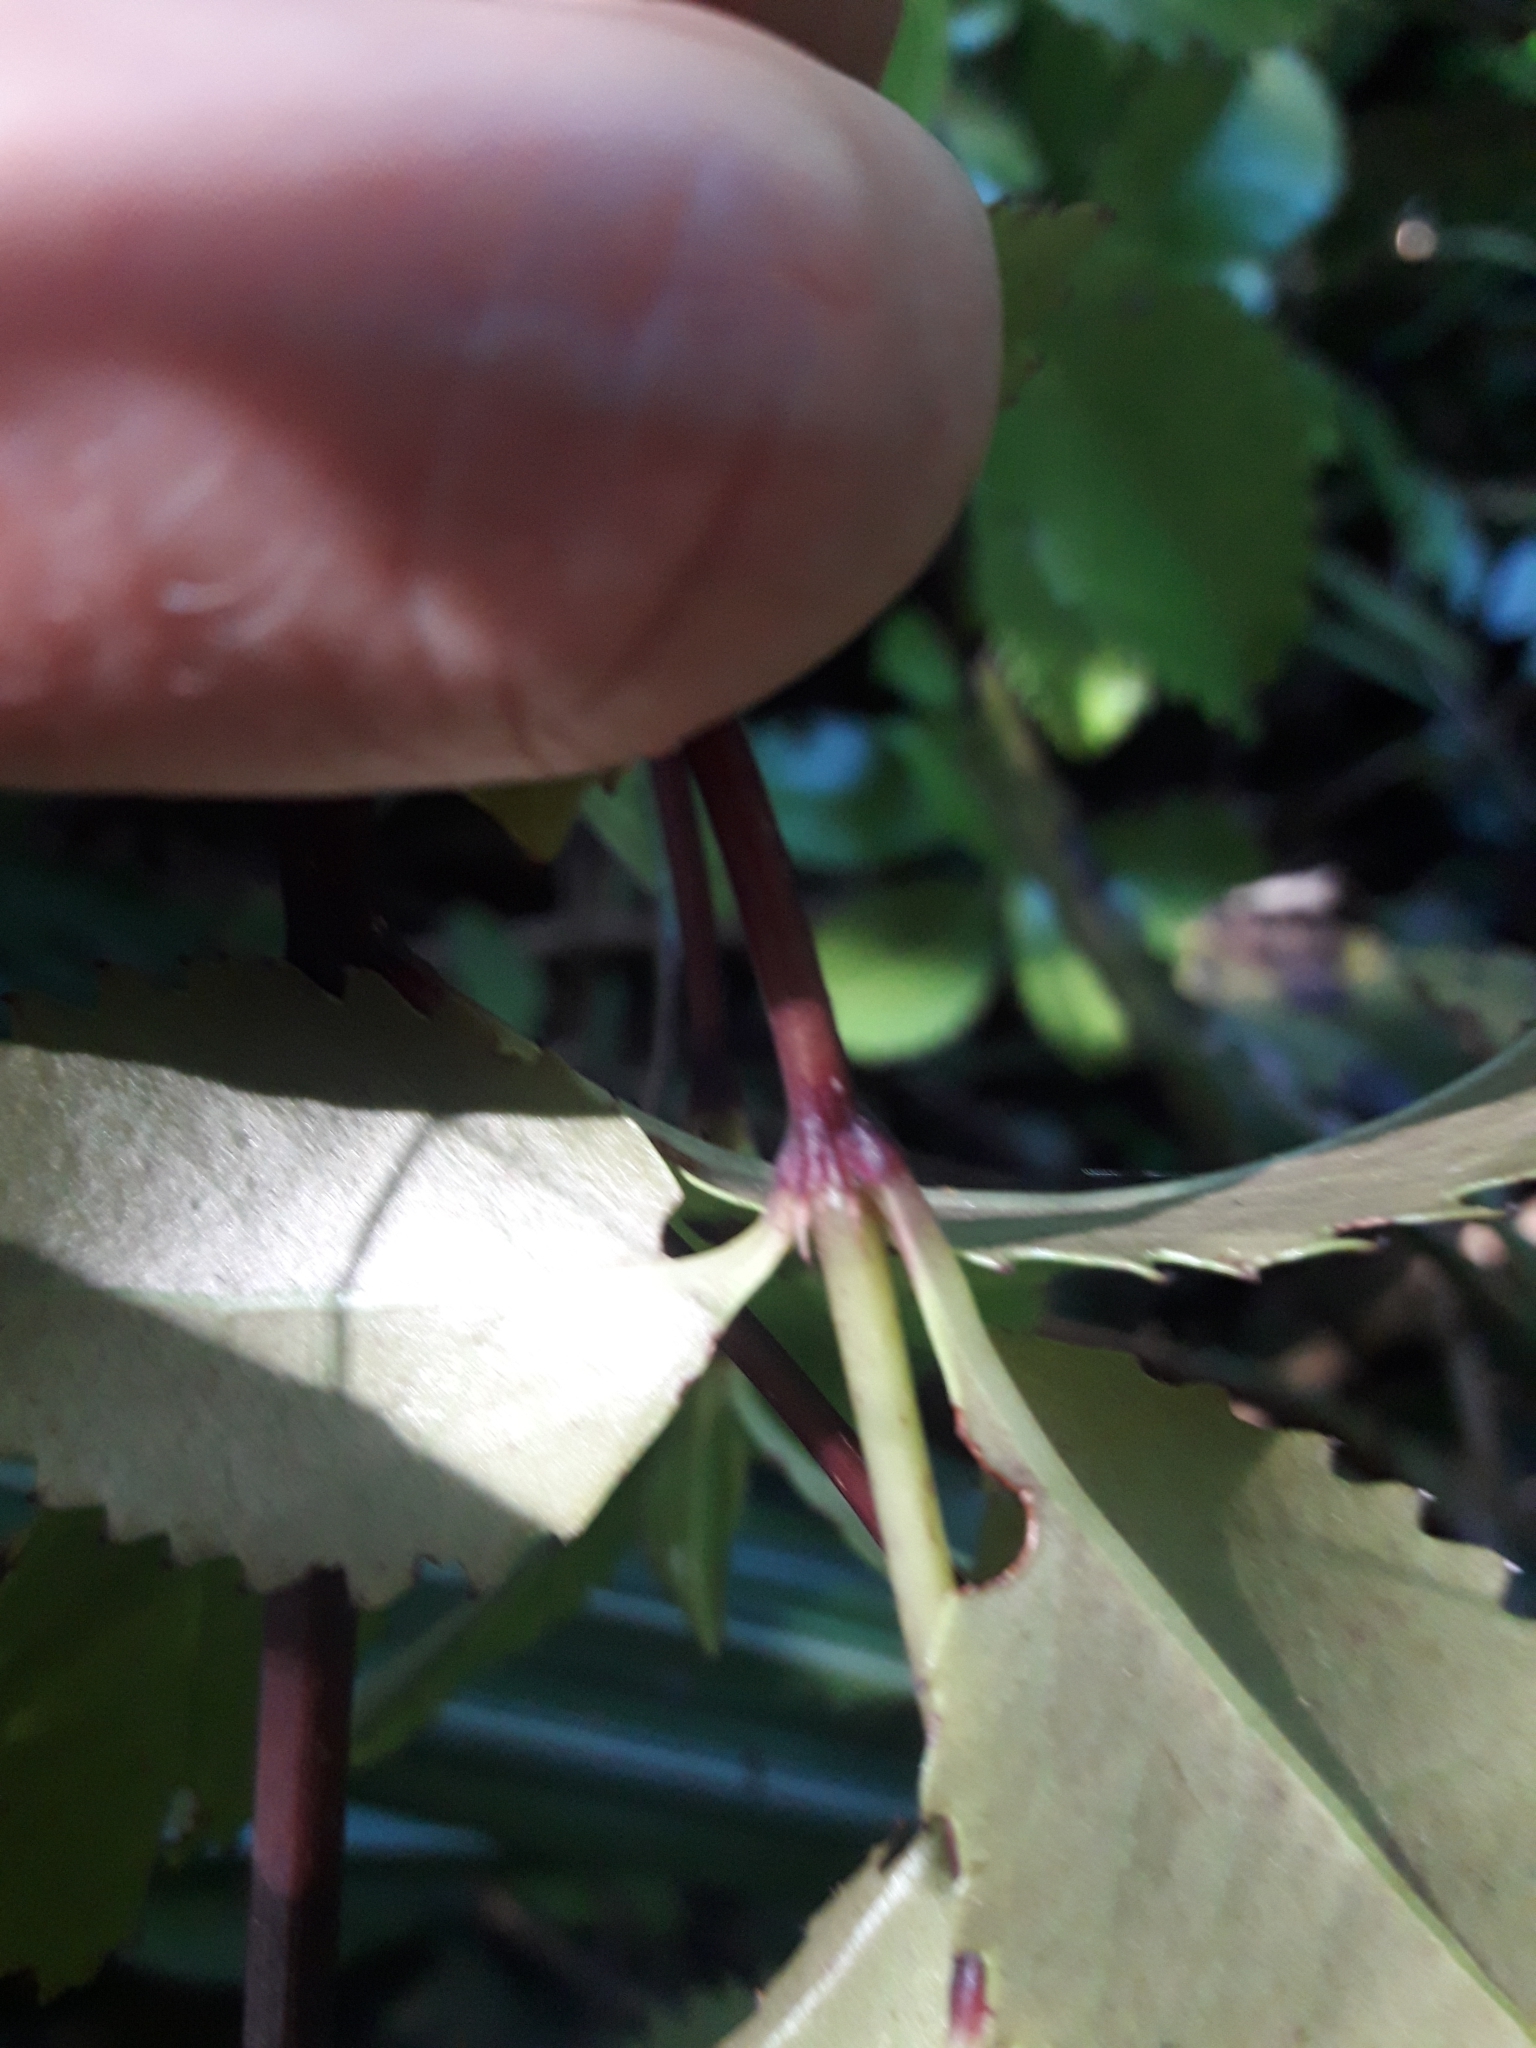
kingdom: Plantae
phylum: Tracheophyta
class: Magnoliopsida
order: Chloranthales
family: Chloranthaceae
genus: Ascarina
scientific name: Ascarina lucida
